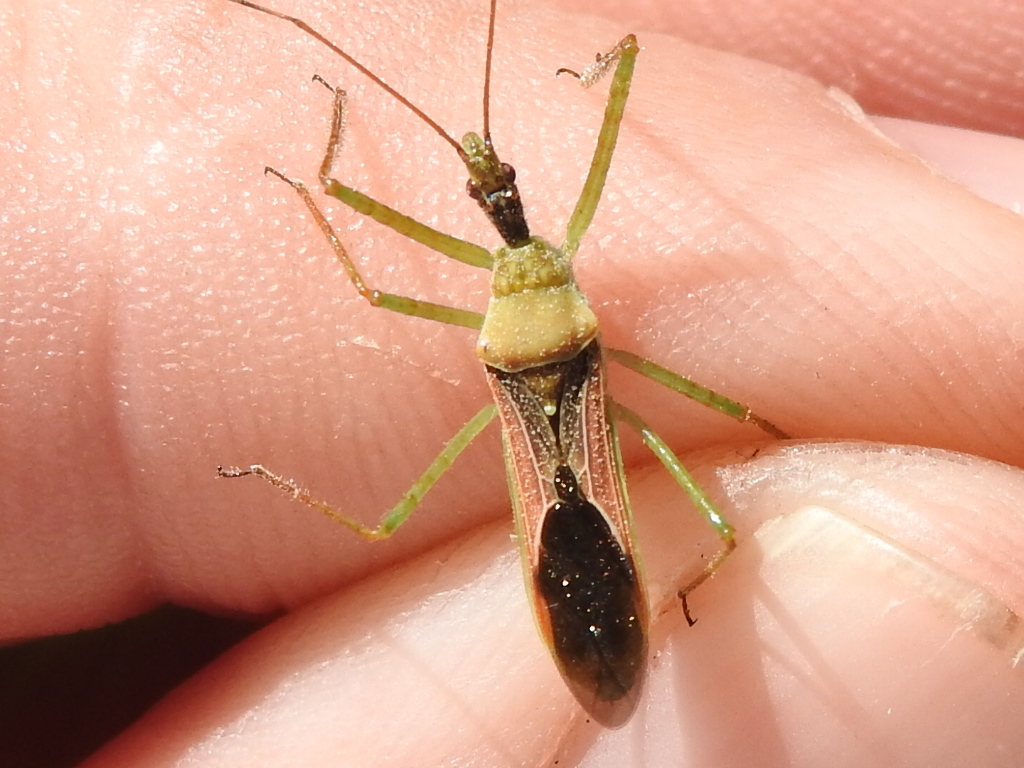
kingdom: Animalia
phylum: Arthropoda
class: Insecta
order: Hemiptera
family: Reduviidae
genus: Zelus
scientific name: Zelus renardii
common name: Assassin bug
